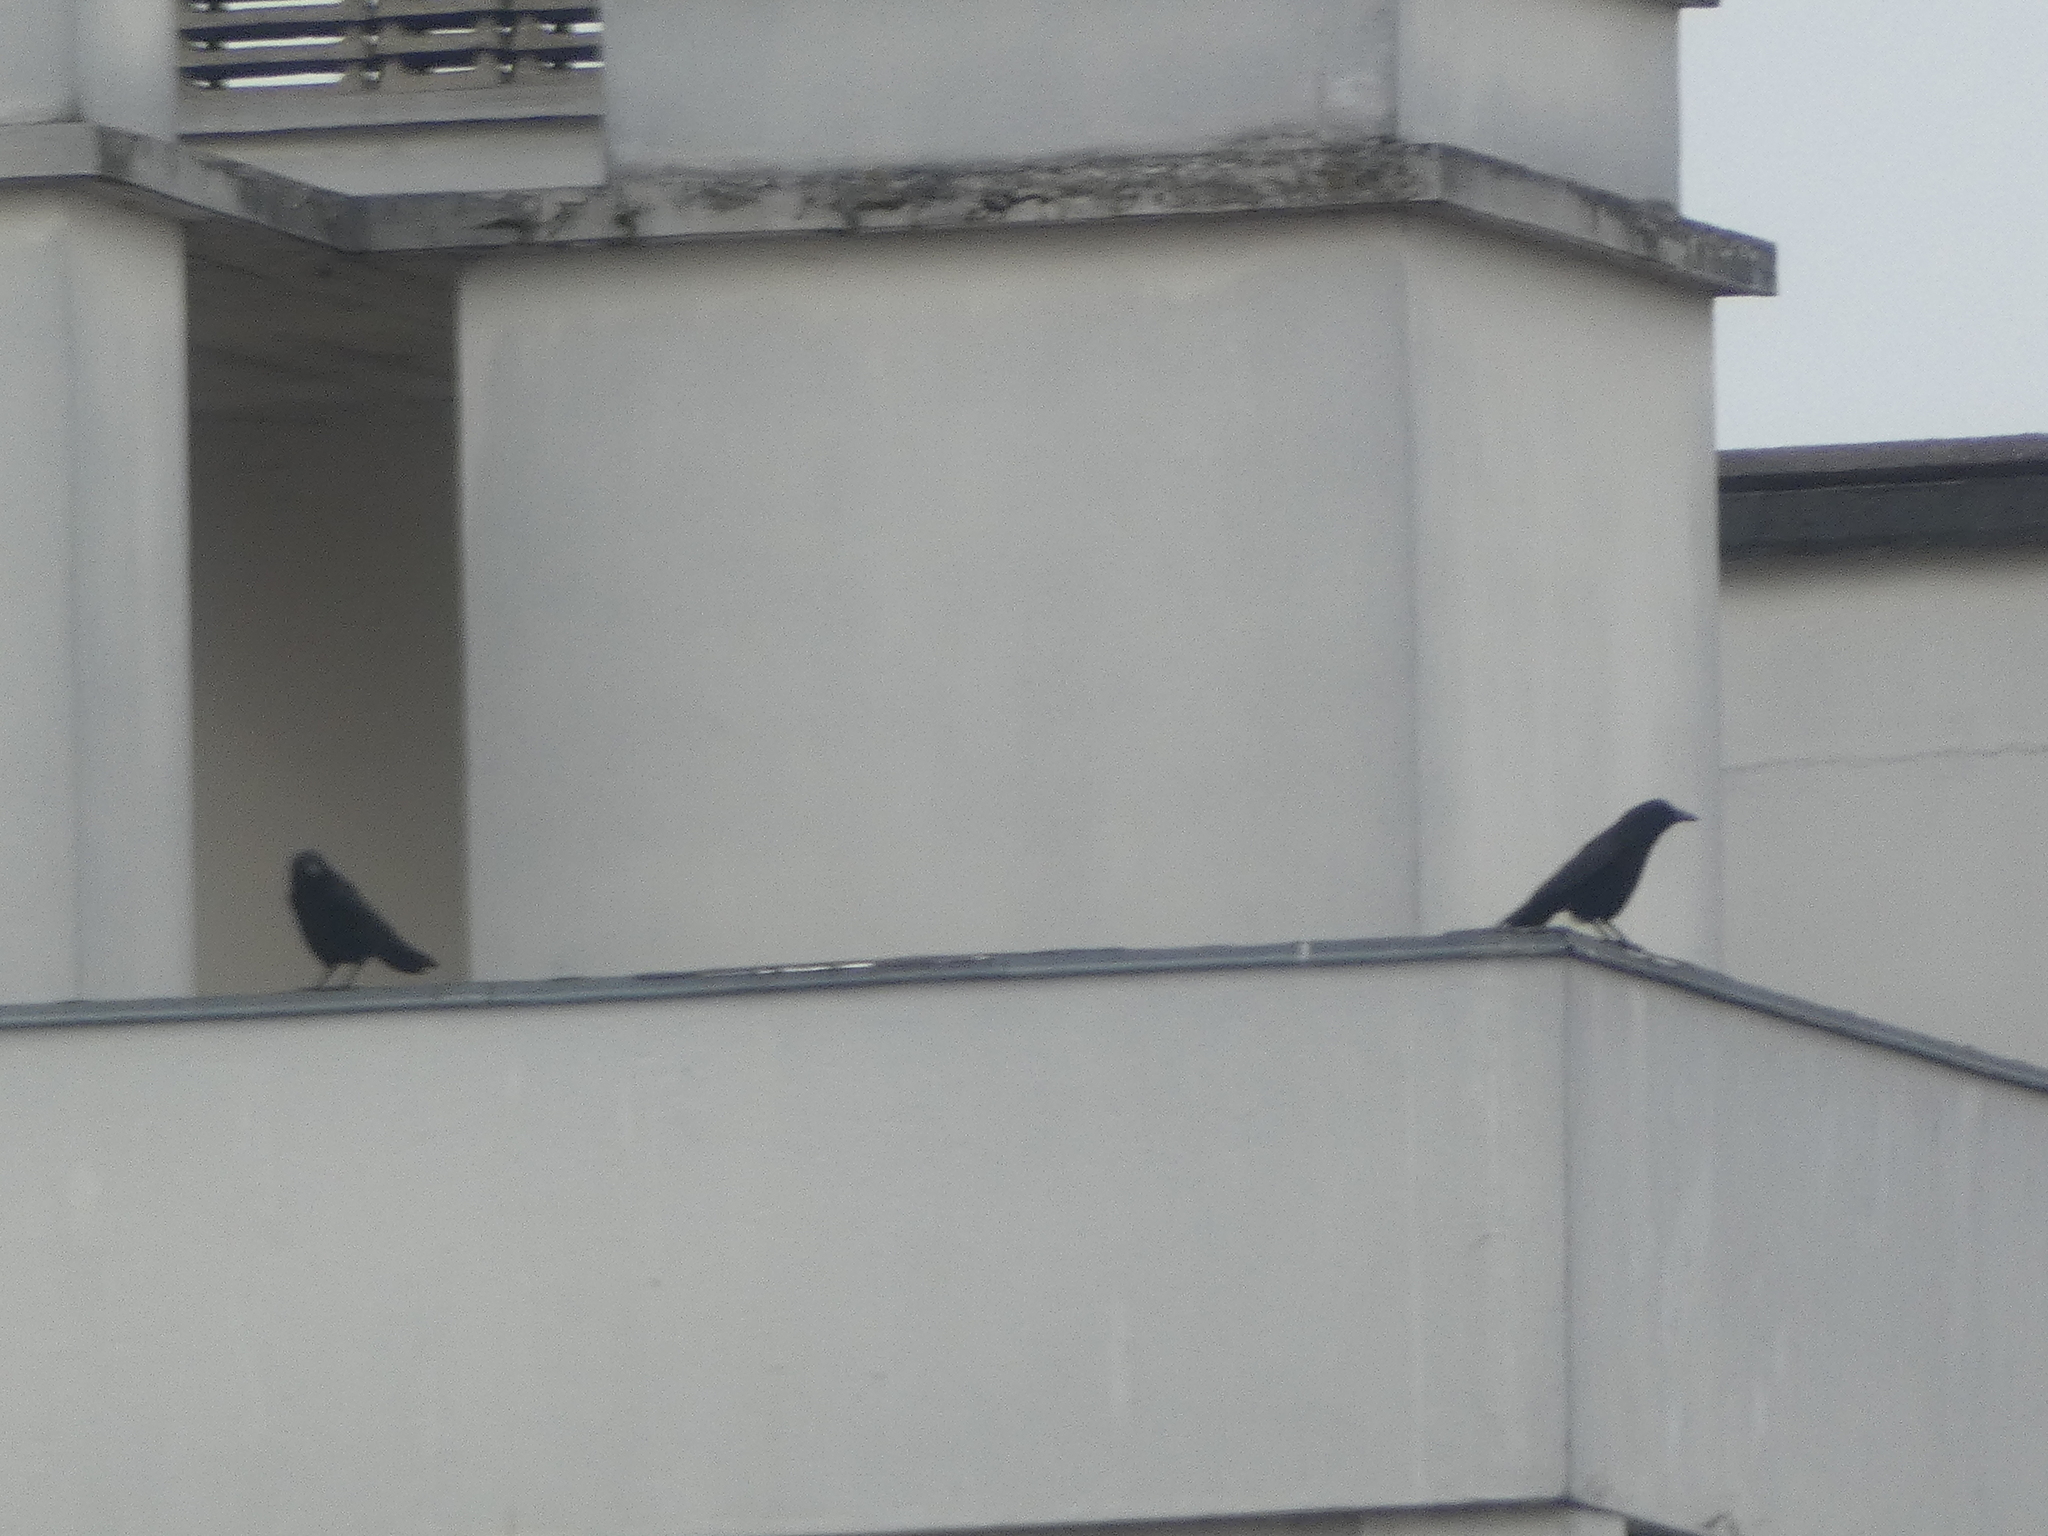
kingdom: Animalia
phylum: Chordata
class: Aves
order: Passeriformes
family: Corvidae
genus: Corvus
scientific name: Corvus corone
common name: Carrion crow
